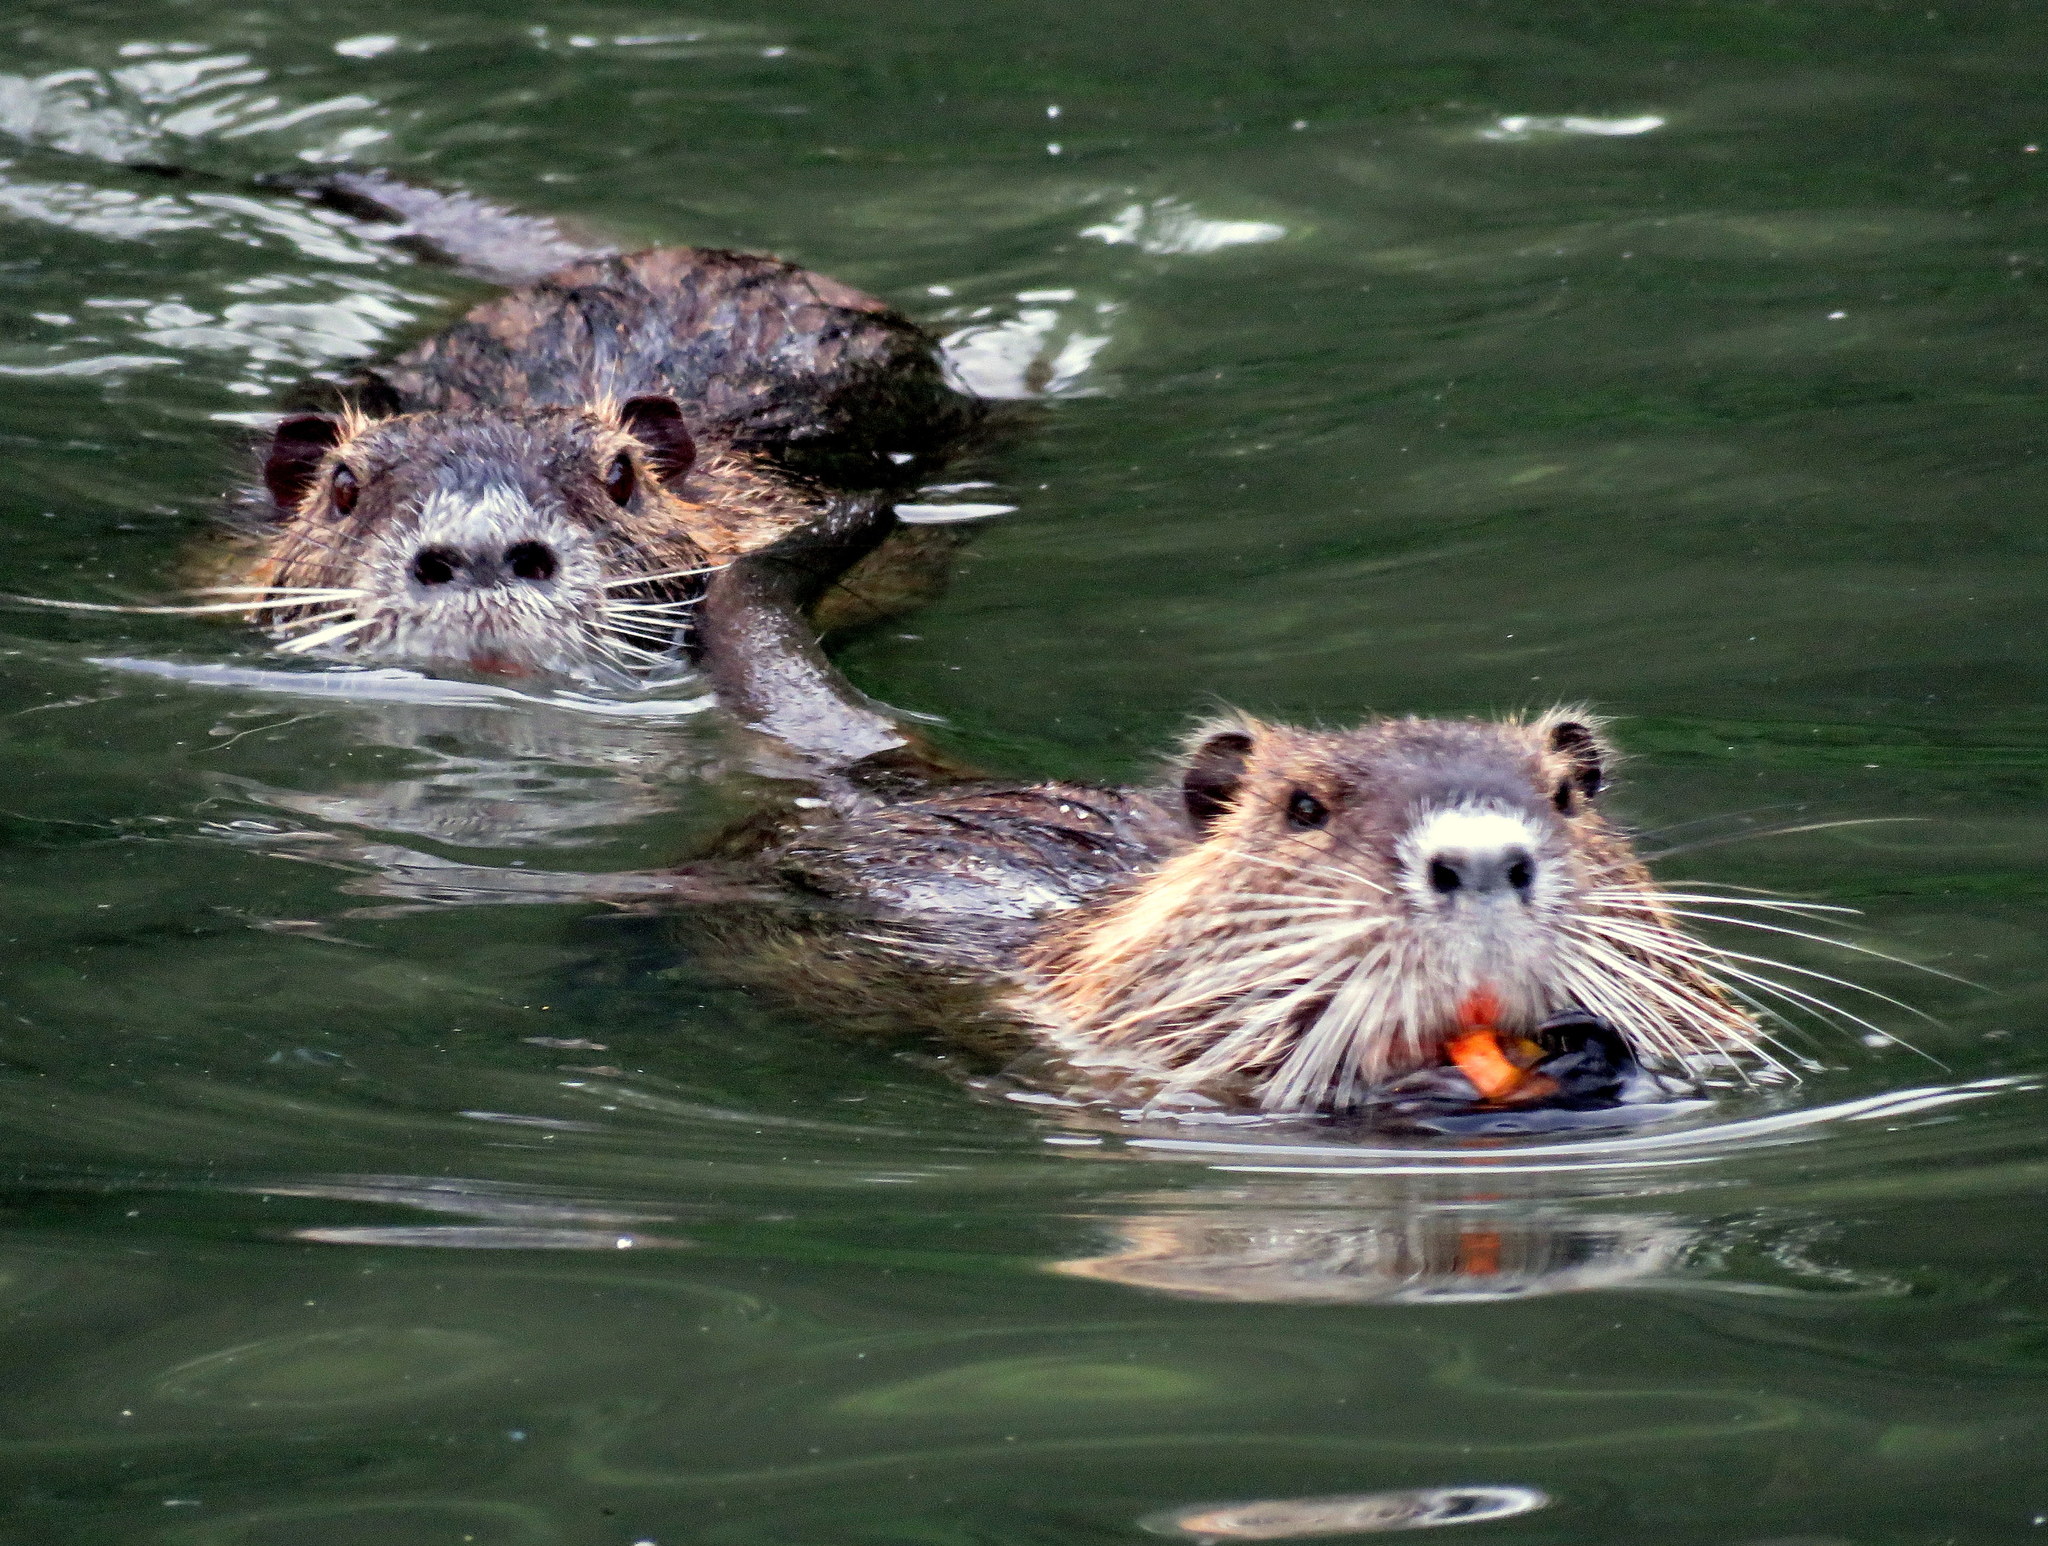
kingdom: Animalia
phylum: Chordata
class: Mammalia
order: Rodentia
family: Myocastoridae
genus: Myocastor
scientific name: Myocastor coypus
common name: Coypu
